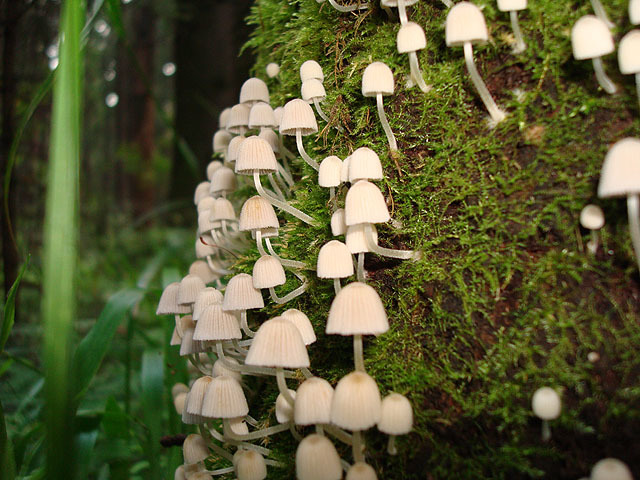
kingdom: Fungi
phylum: Basidiomycota
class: Agaricomycetes
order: Agaricales
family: Psathyrellaceae
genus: Coprinellus
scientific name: Coprinellus disseminatus
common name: Fairies' bonnets
